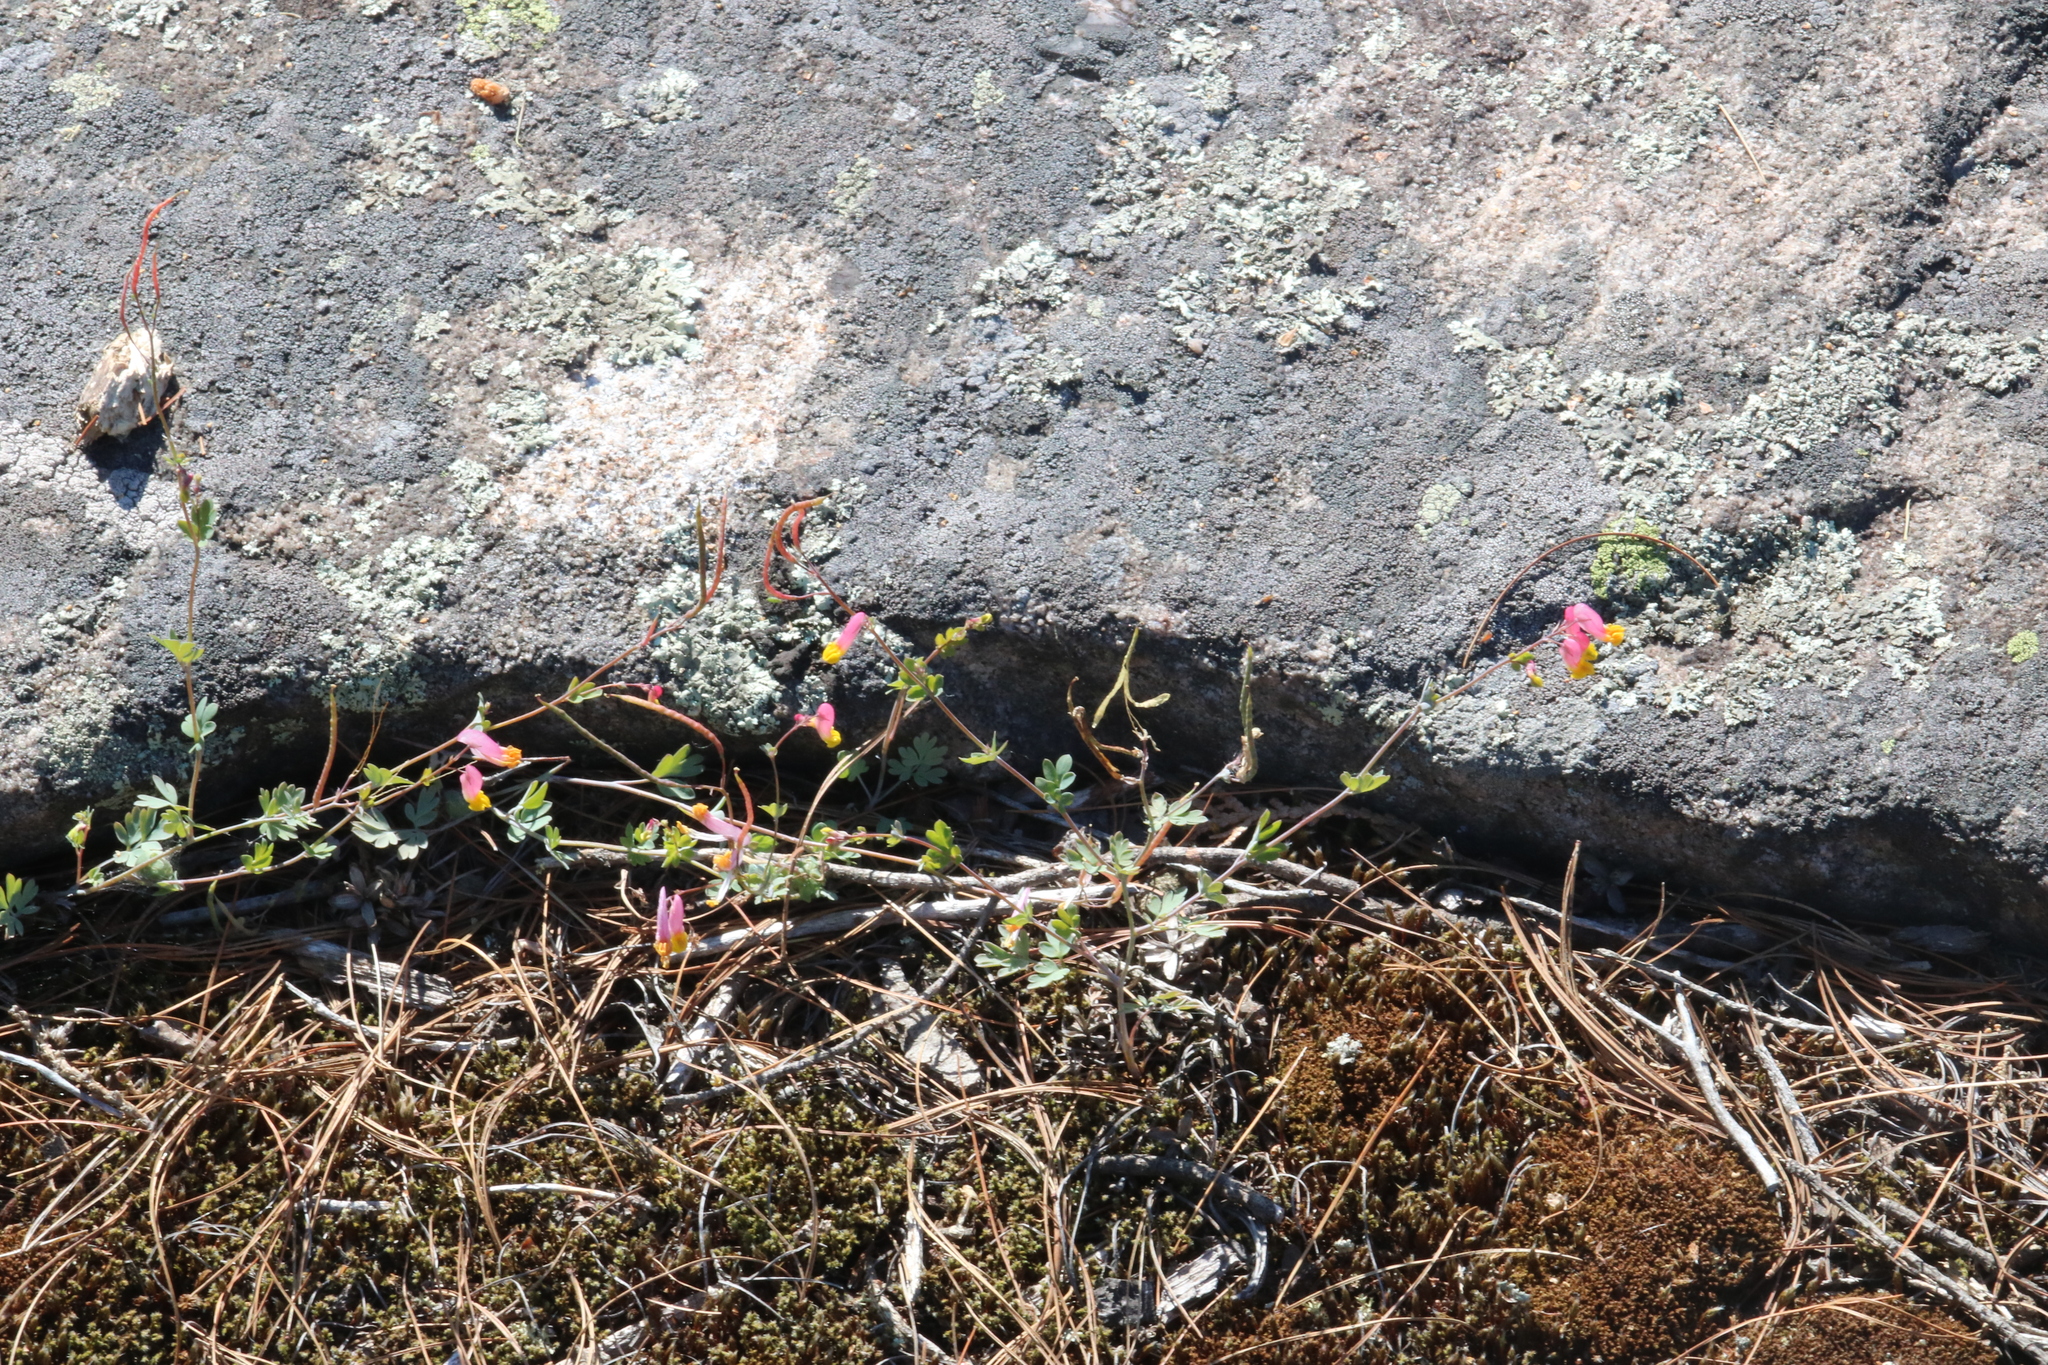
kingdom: Plantae
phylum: Tracheophyta
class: Magnoliopsida
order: Ranunculales
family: Papaveraceae
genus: Capnoides
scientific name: Capnoides sempervirens
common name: Rock harlequin
